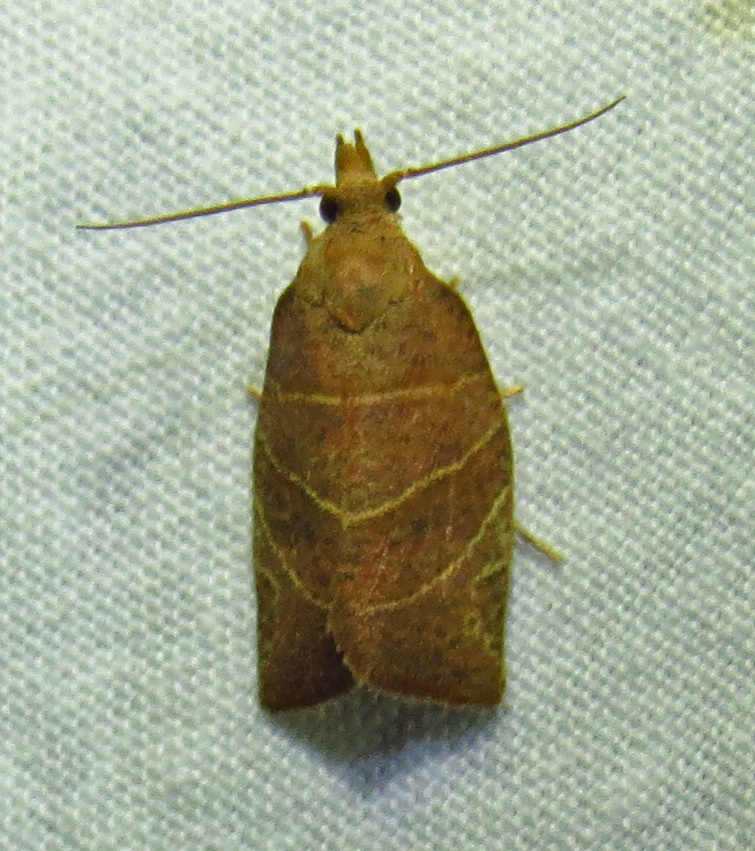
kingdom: Animalia
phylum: Arthropoda
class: Insecta
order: Lepidoptera
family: Tortricidae
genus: Pandemis
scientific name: Pandemis limitata
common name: Three-lined leafroller moth
